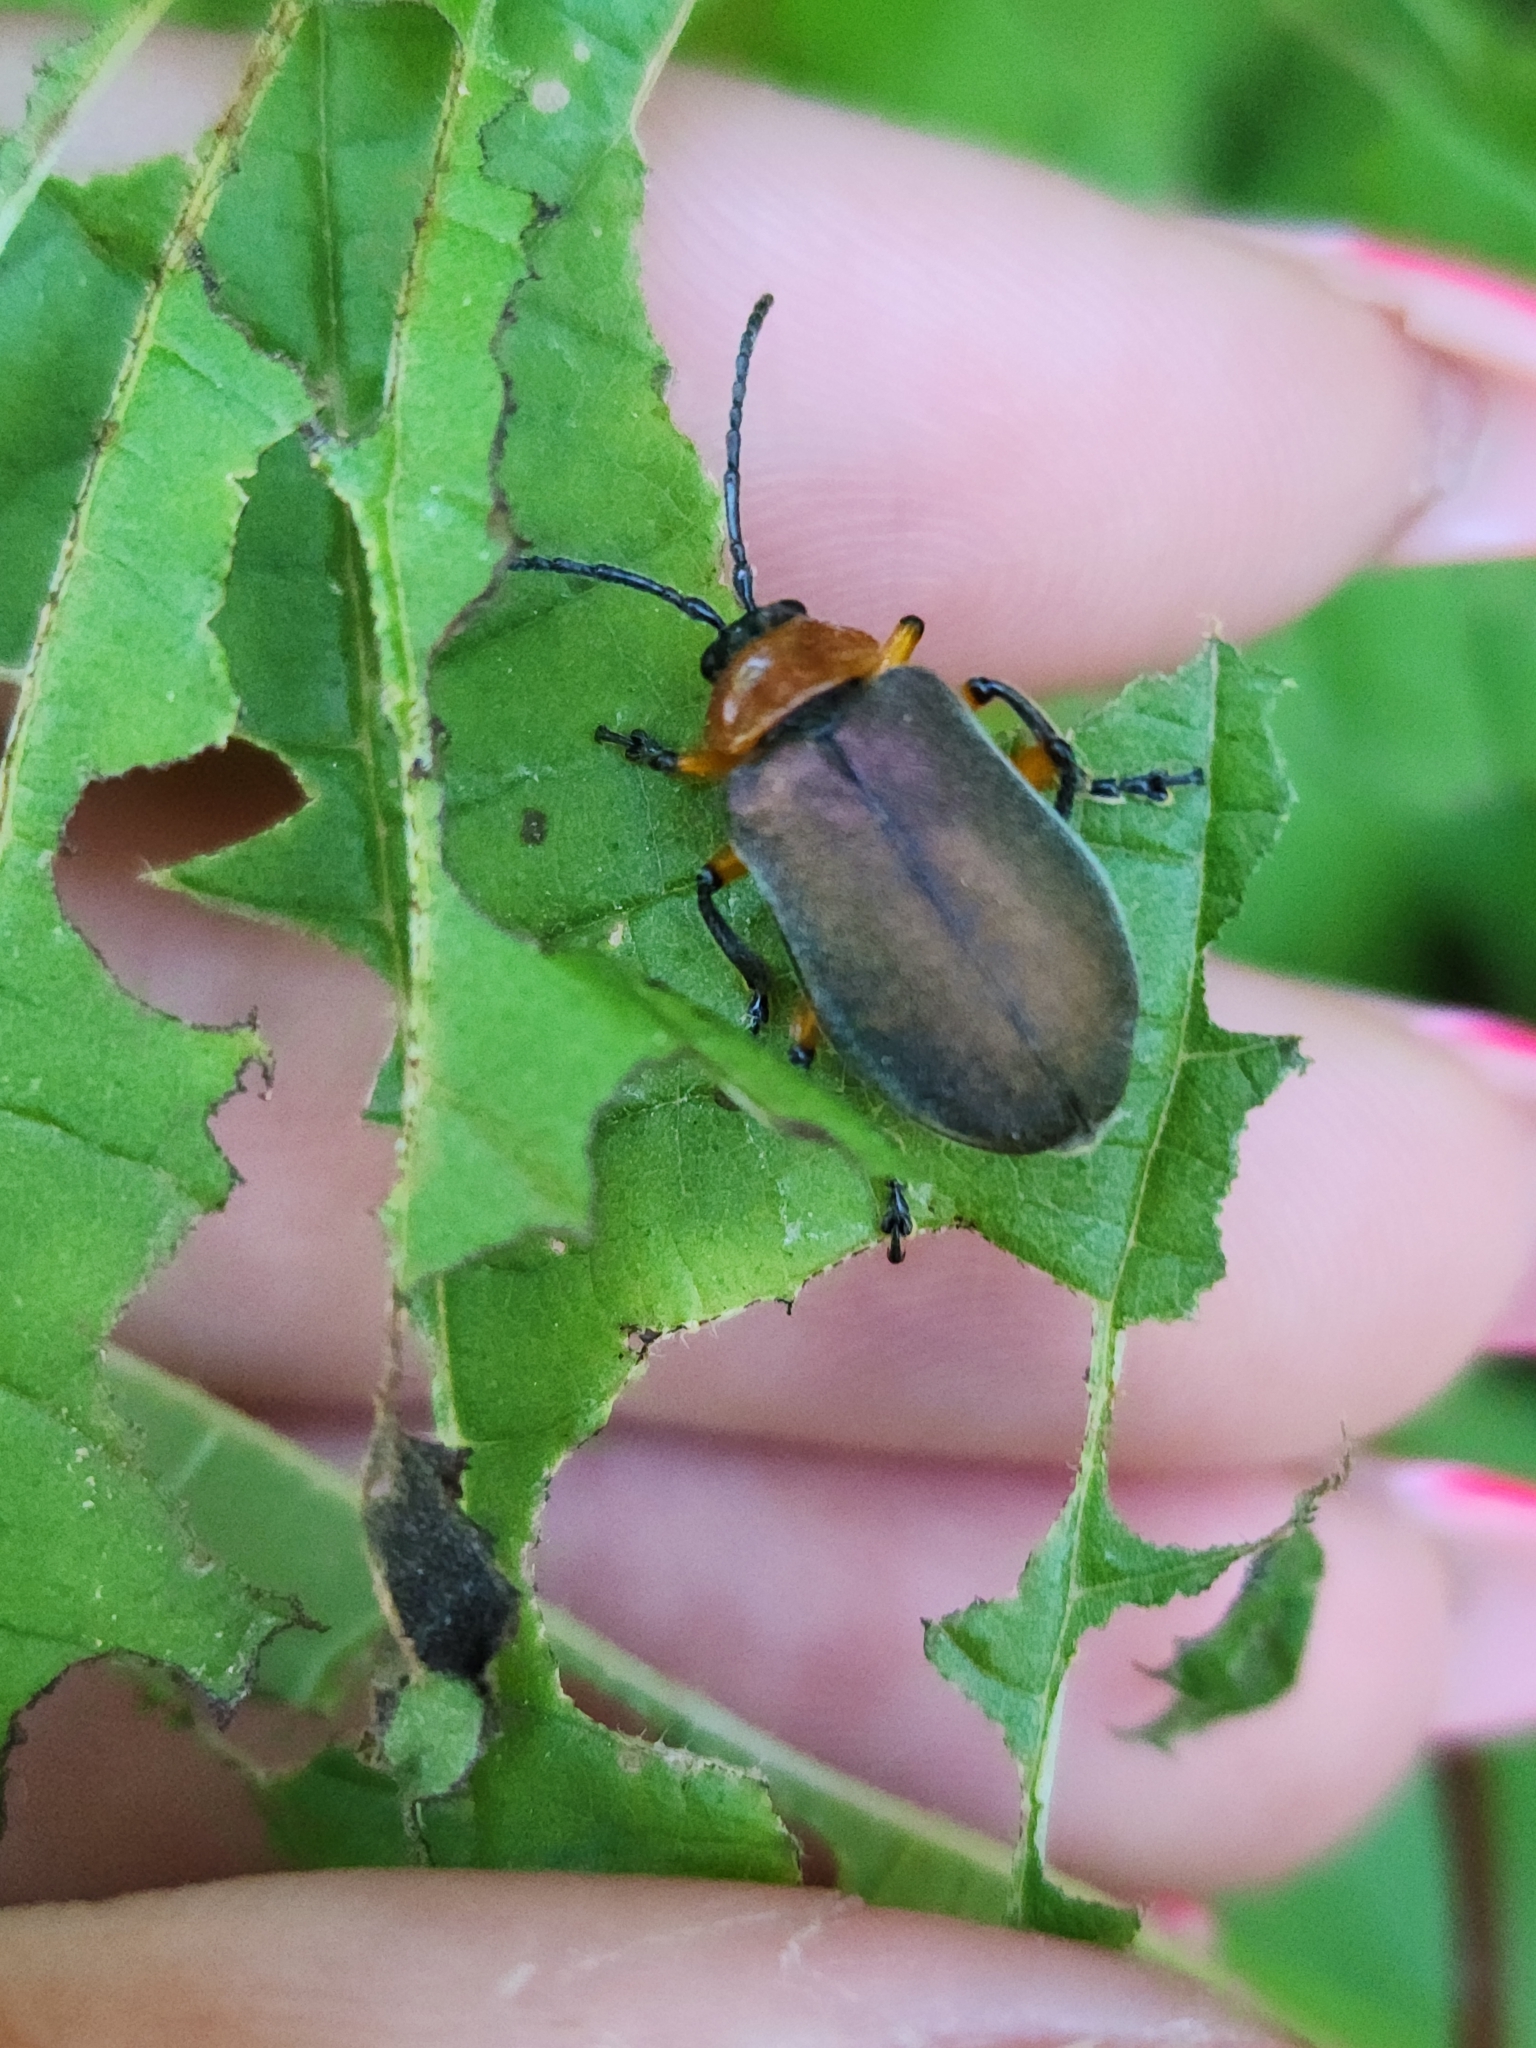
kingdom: Animalia
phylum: Arthropoda
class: Insecta
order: Coleoptera
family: Chrysomelidae
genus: Coelomera
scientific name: Coelomera
